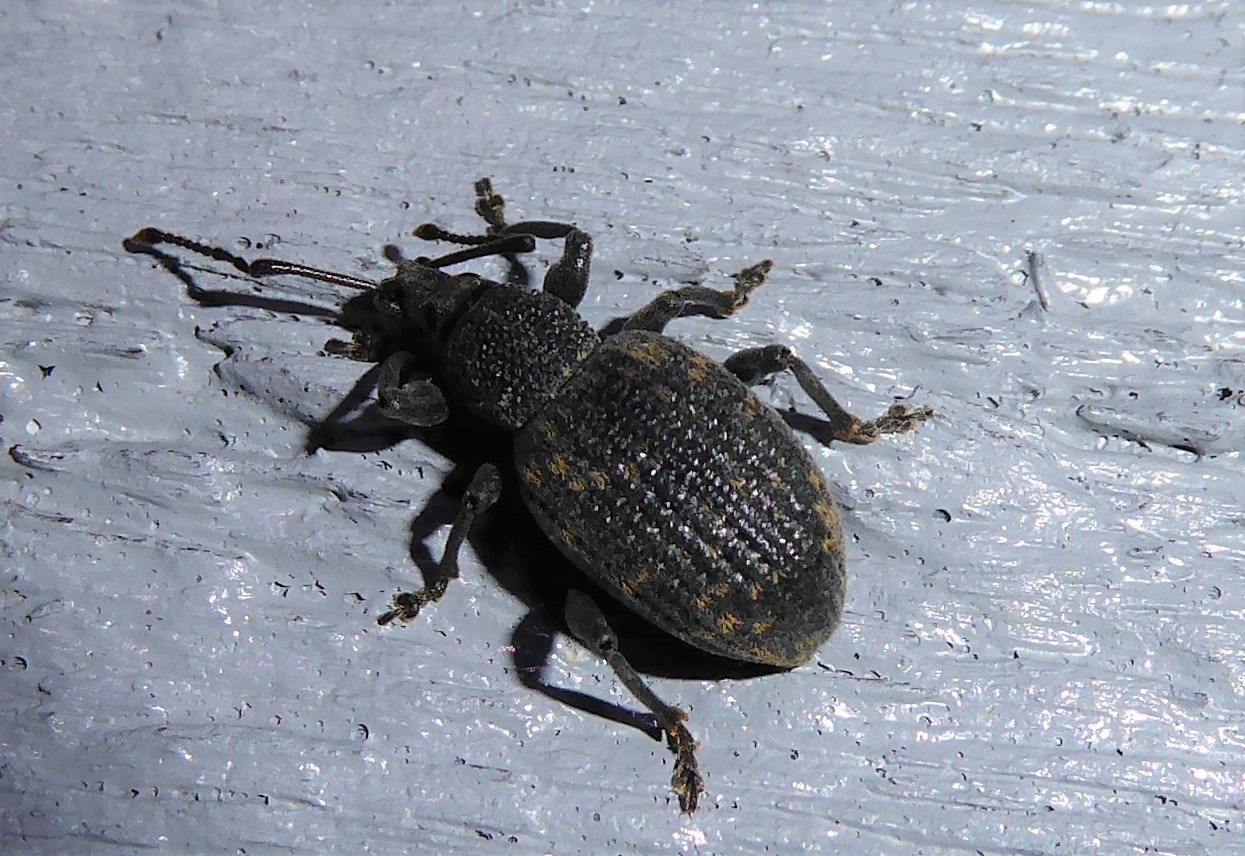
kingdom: Animalia
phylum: Arthropoda
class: Insecta
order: Coleoptera
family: Curculionidae
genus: Otiorhynchus
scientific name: Otiorhynchus sulcatus
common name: Black vine weevil
